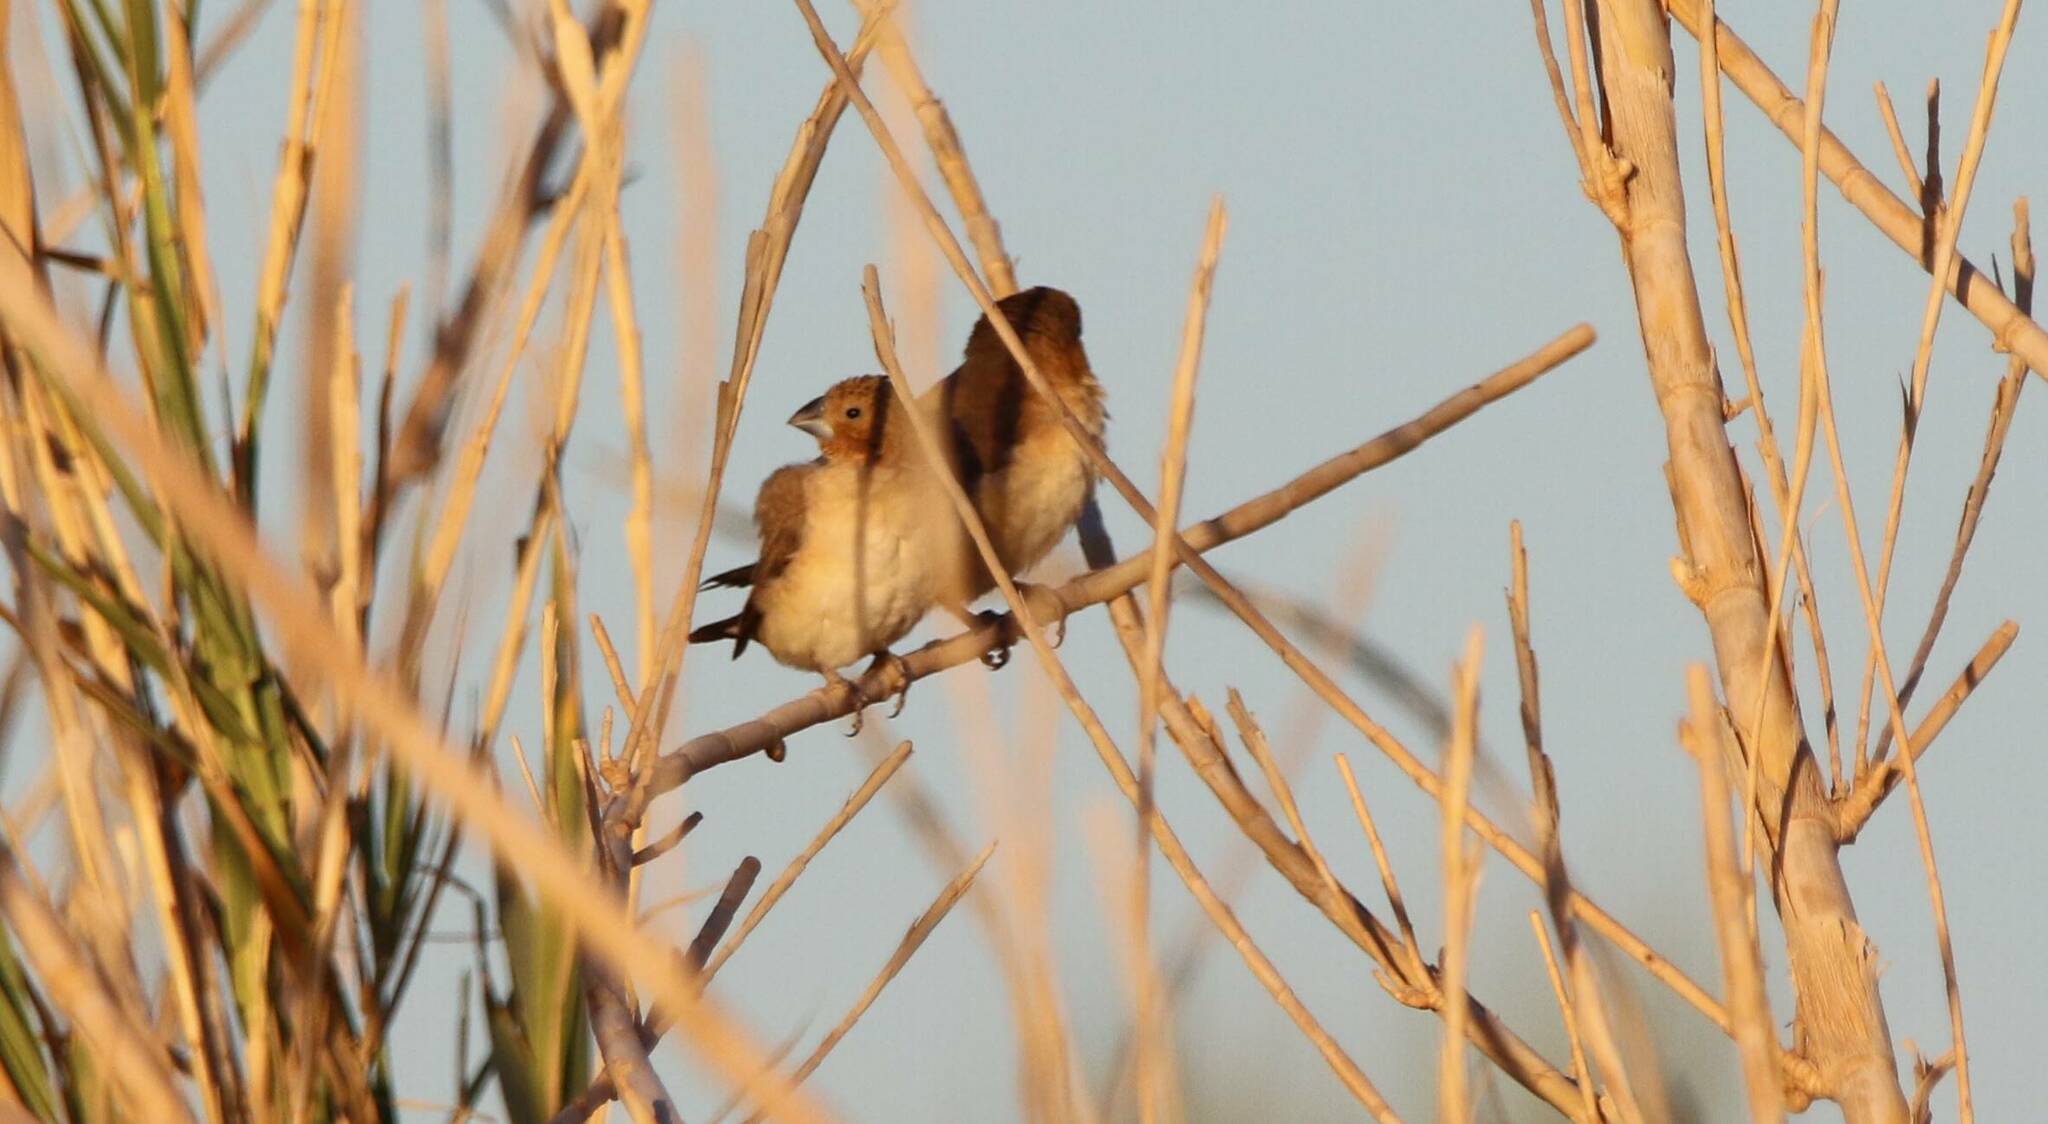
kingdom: Animalia
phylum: Chordata
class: Aves
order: Passeriformes
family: Estrildidae
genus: Euodice
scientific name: Euodice cantans
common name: African silverbill
